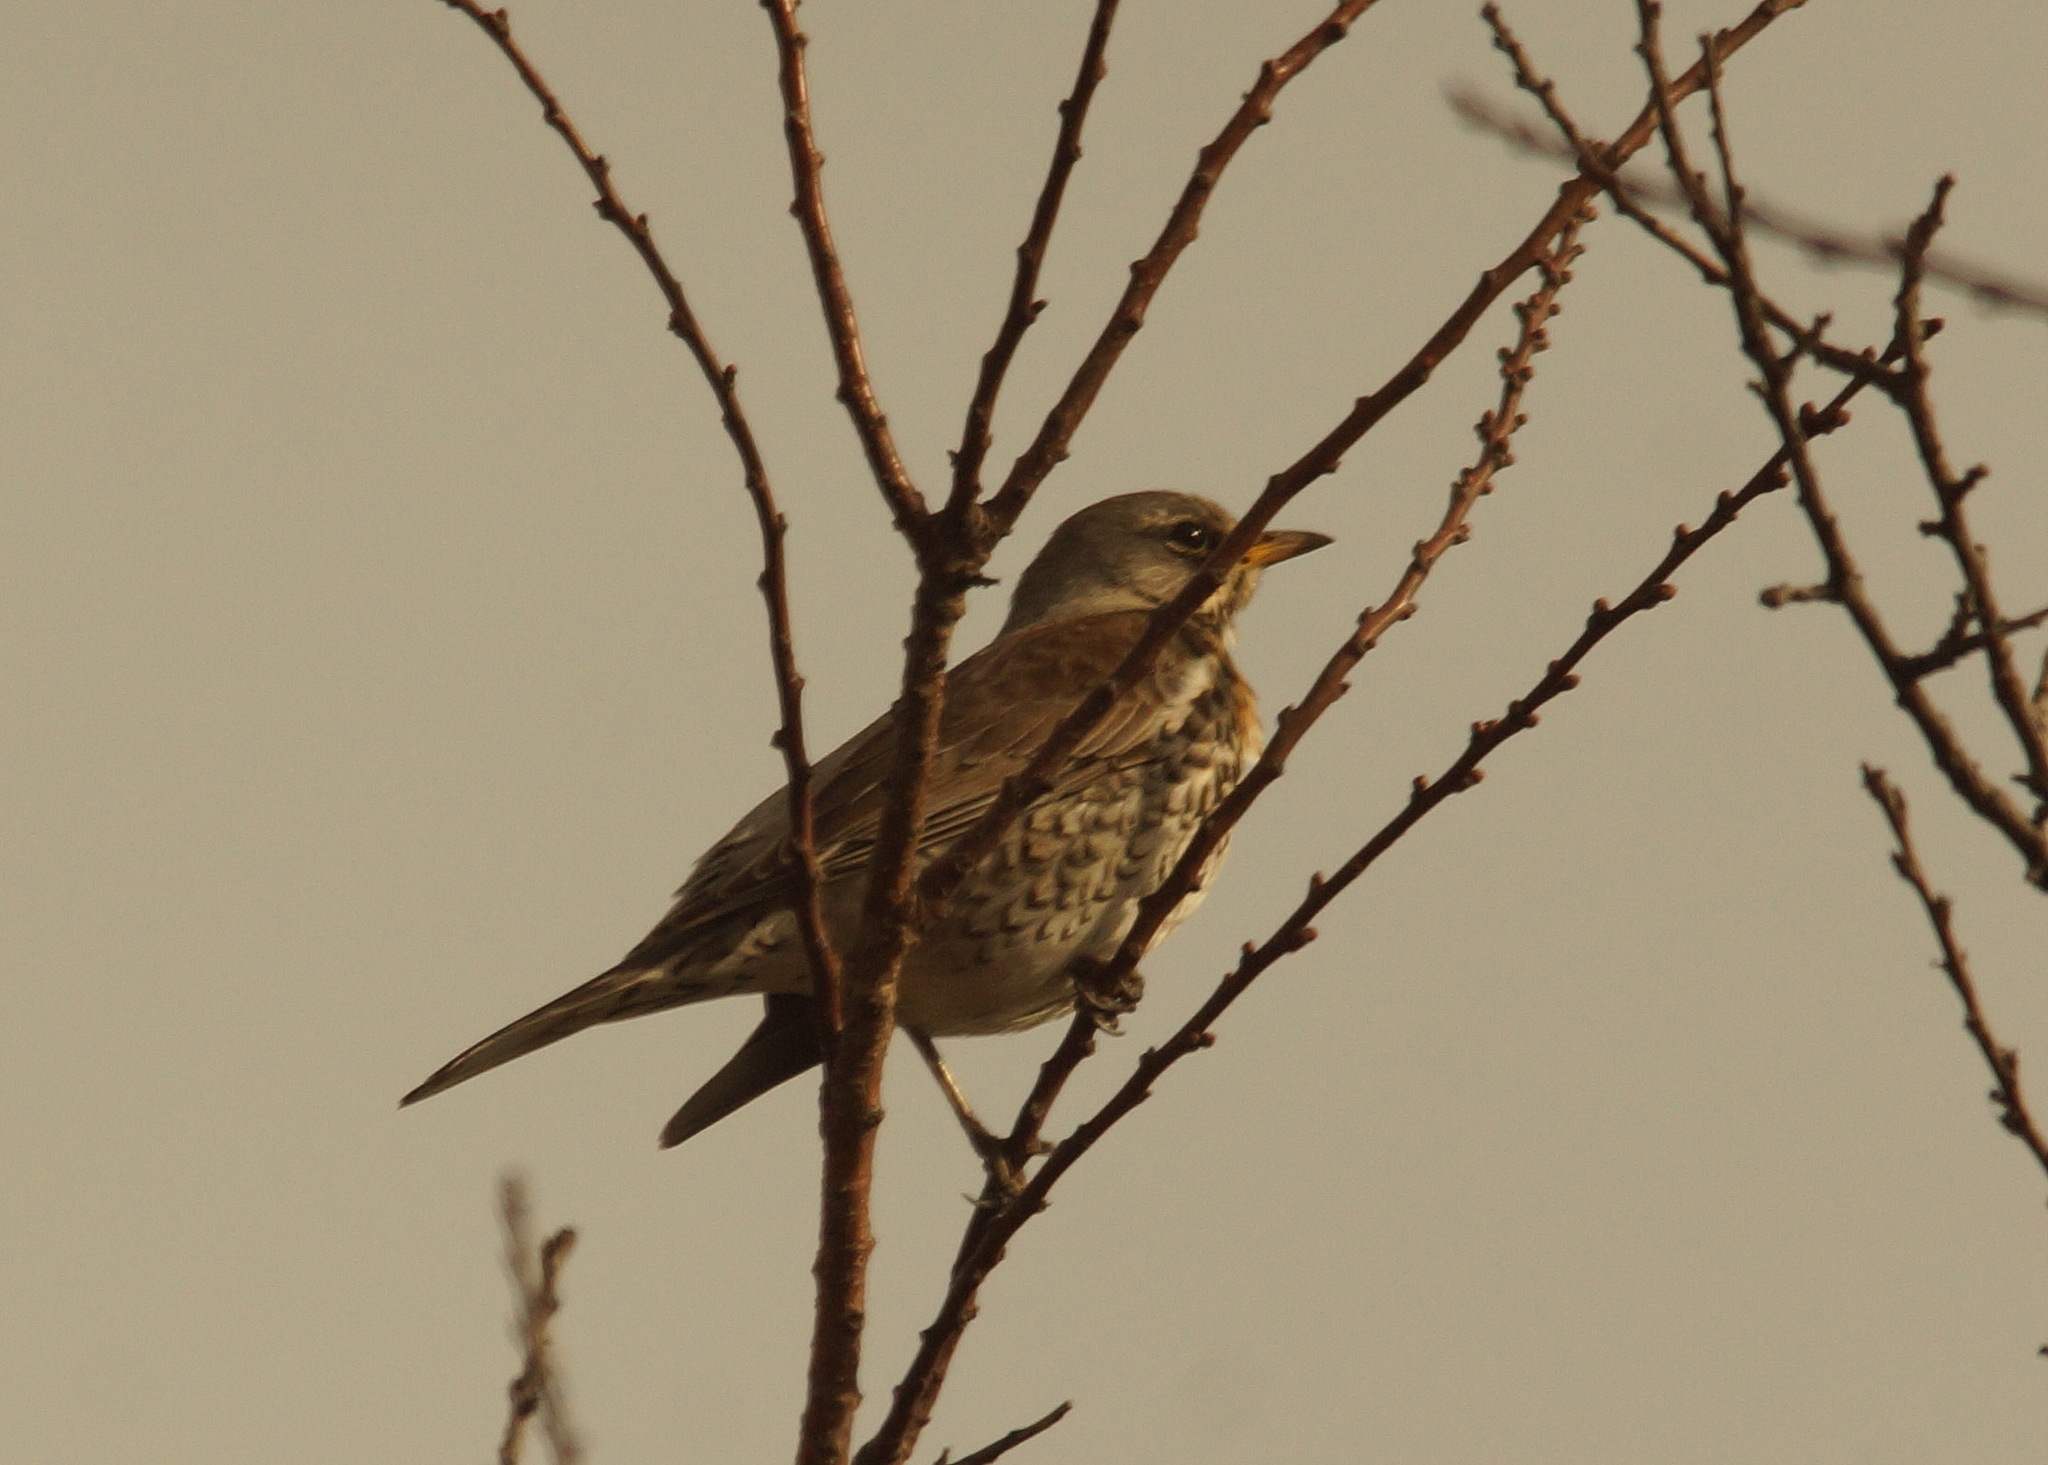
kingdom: Animalia
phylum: Chordata
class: Aves
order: Passeriformes
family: Turdidae
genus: Turdus
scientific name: Turdus pilaris
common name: Fieldfare
